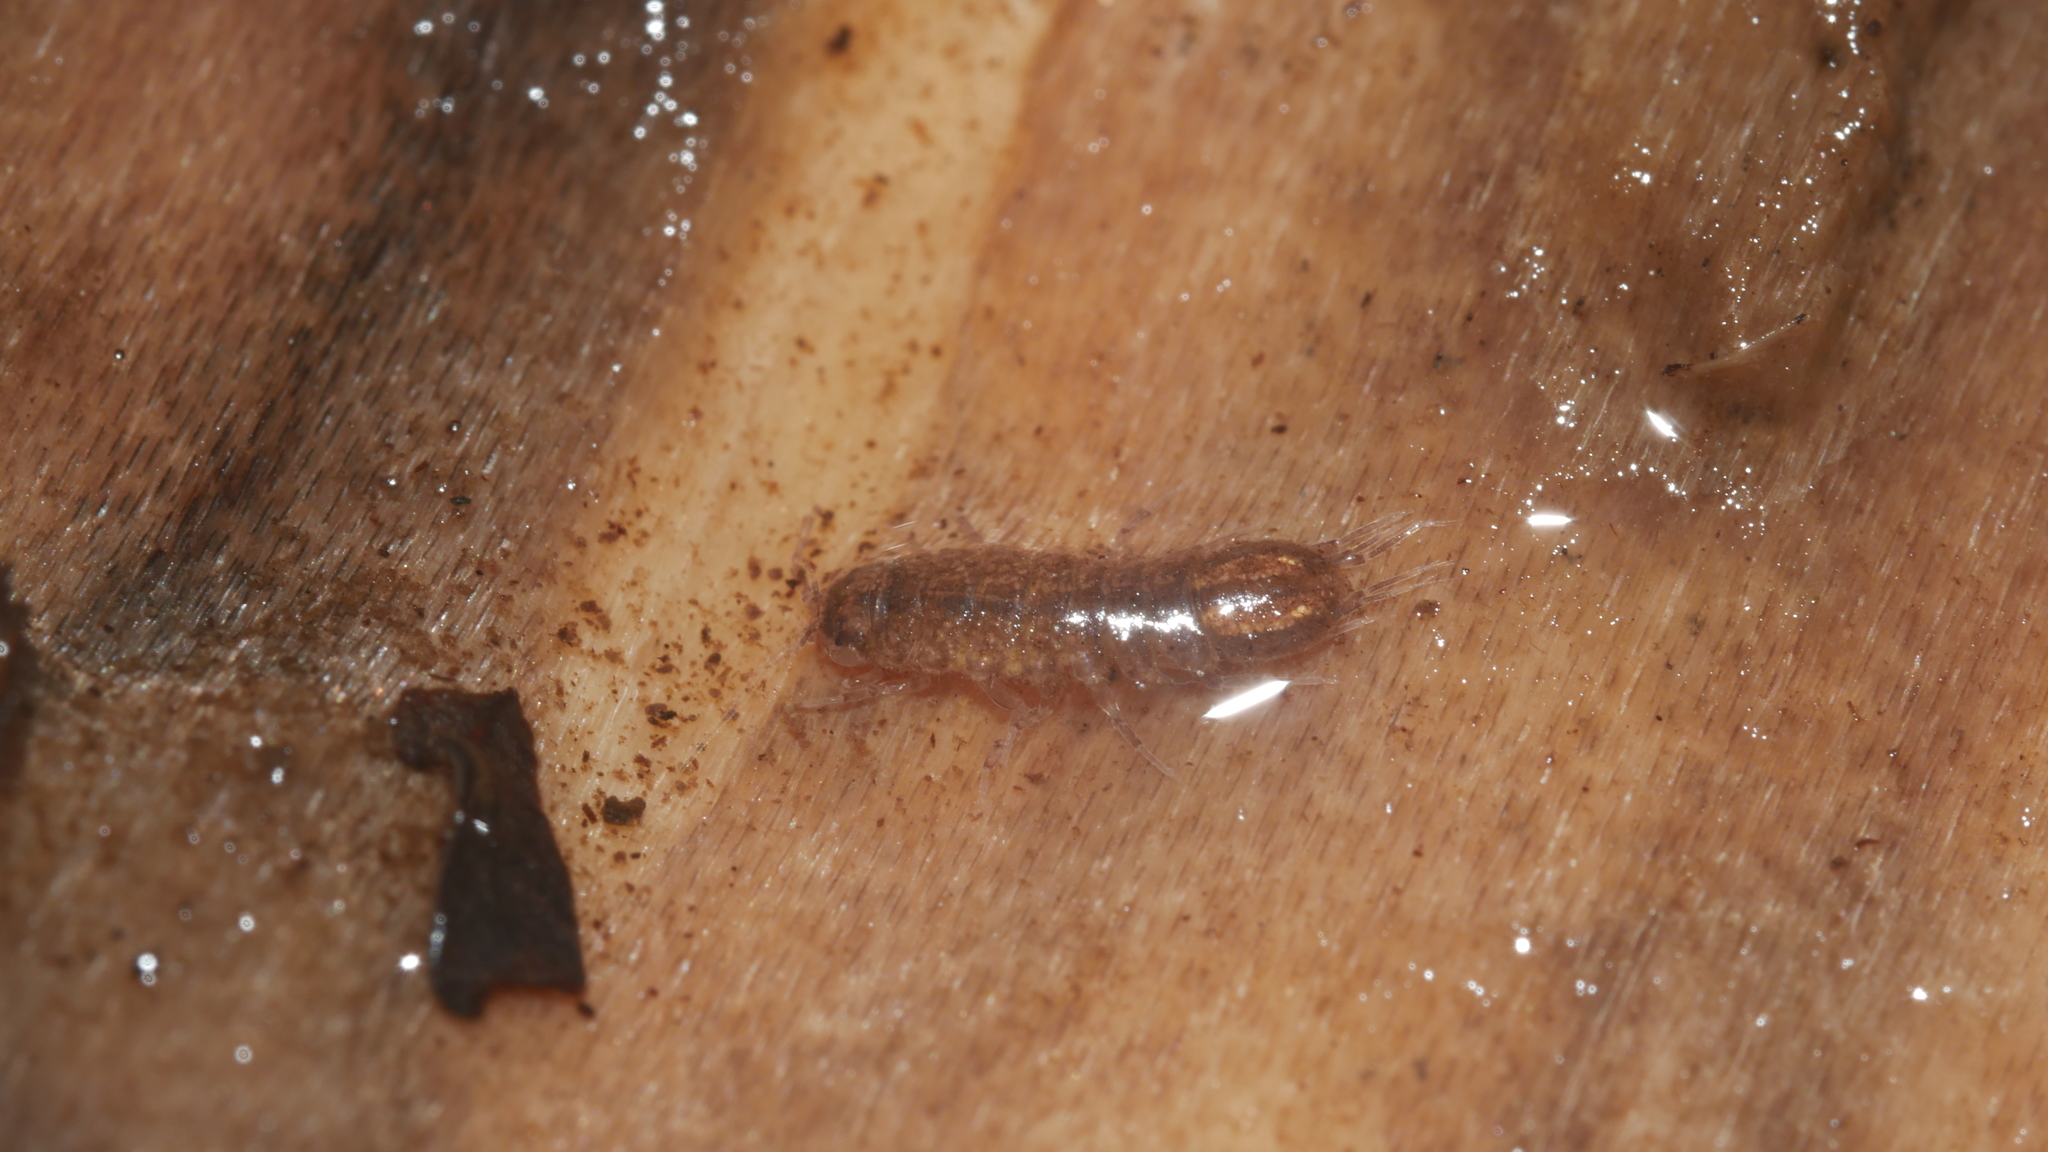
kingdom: Animalia
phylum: Arthropoda
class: Malacostraca
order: Isopoda
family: Asellidae
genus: Caecidotea
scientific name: Caecidotea nodula
